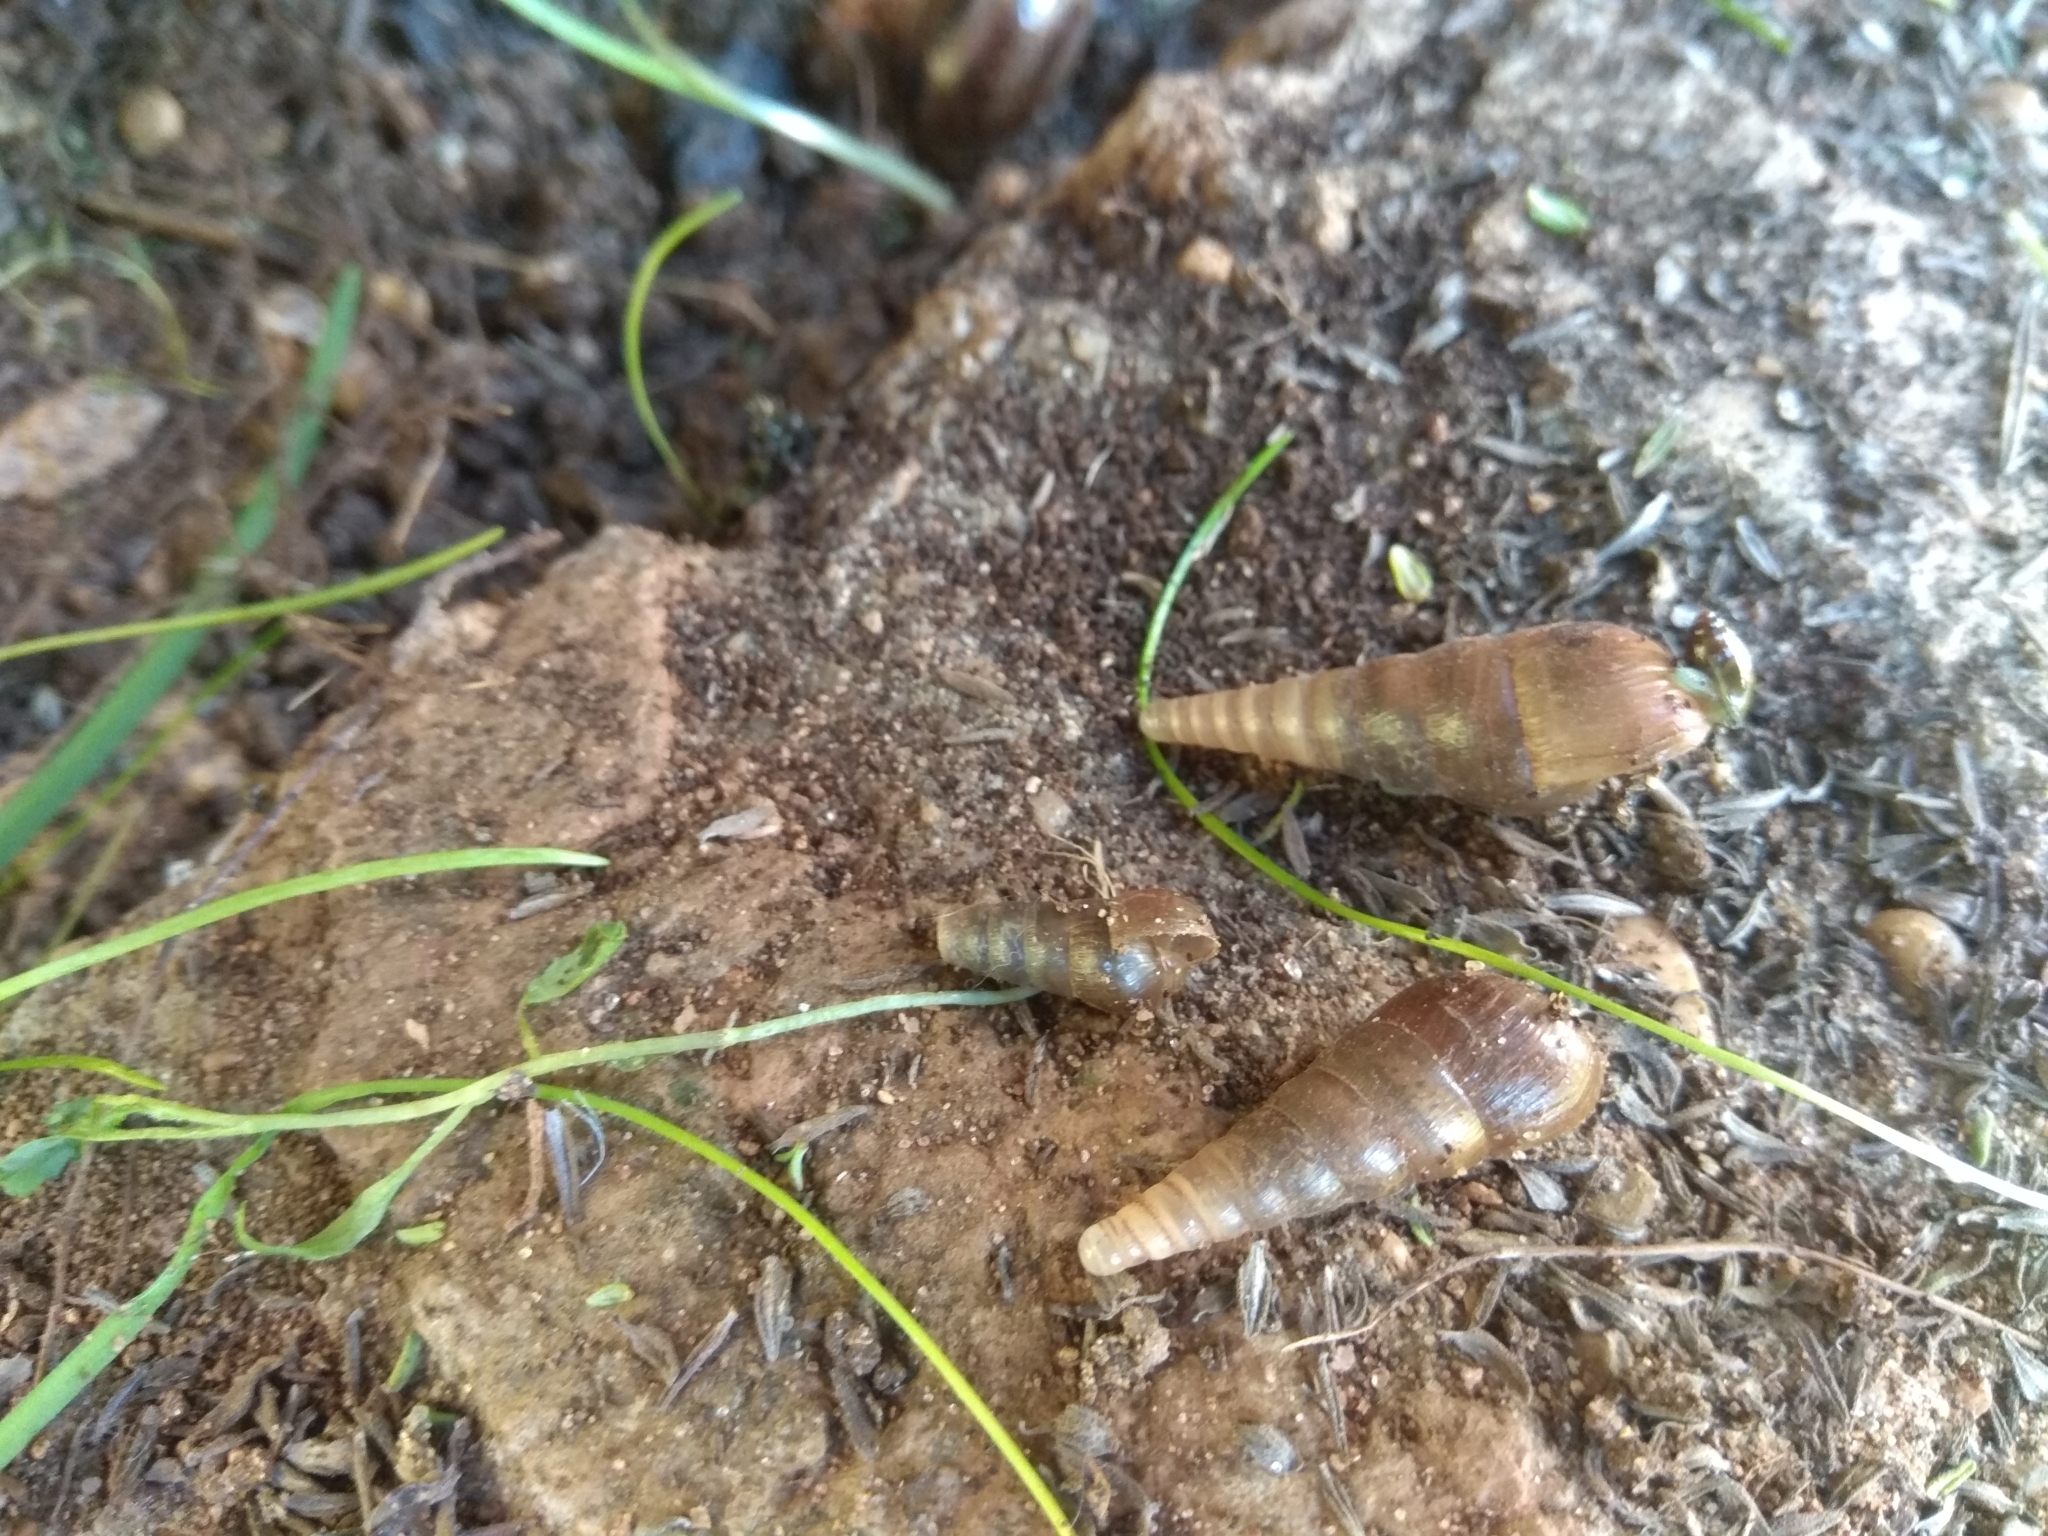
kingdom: Animalia
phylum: Mollusca
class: Gastropoda
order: Stylommatophora
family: Achatinidae
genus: Rumina
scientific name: Rumina decollata
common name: Decollate snail
